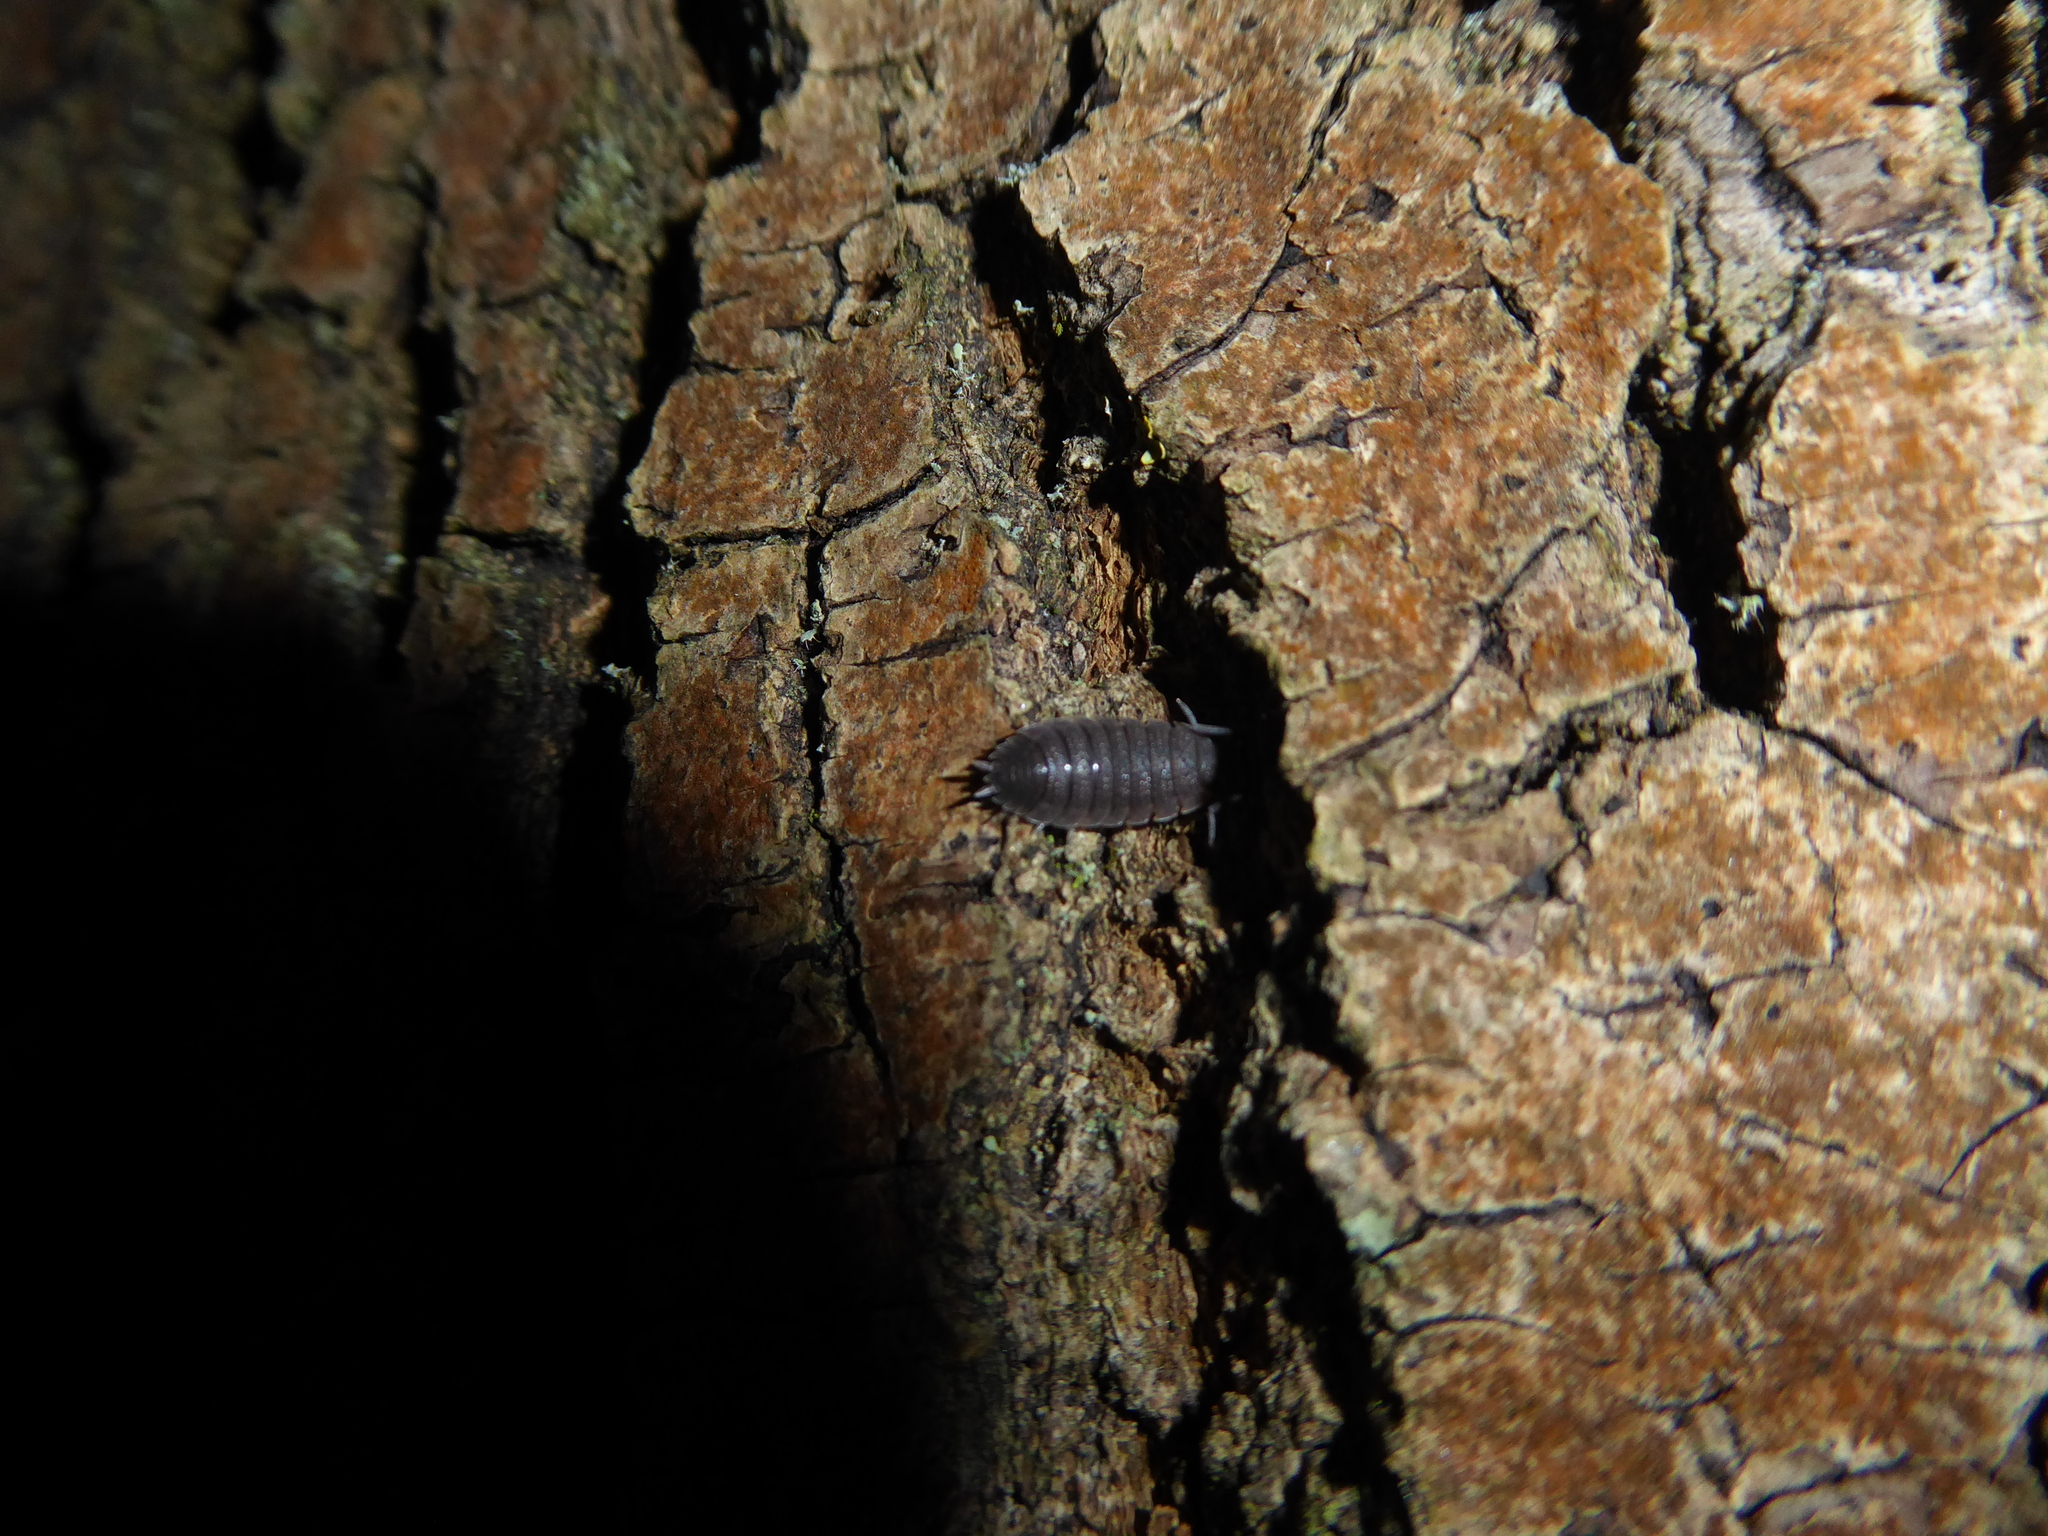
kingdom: Animalia
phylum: Arthropoda
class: Malacostraca
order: Isopoda
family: Porcellionidae
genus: Porcellio
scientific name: Porcellio scaber
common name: Common rough woodlouse
